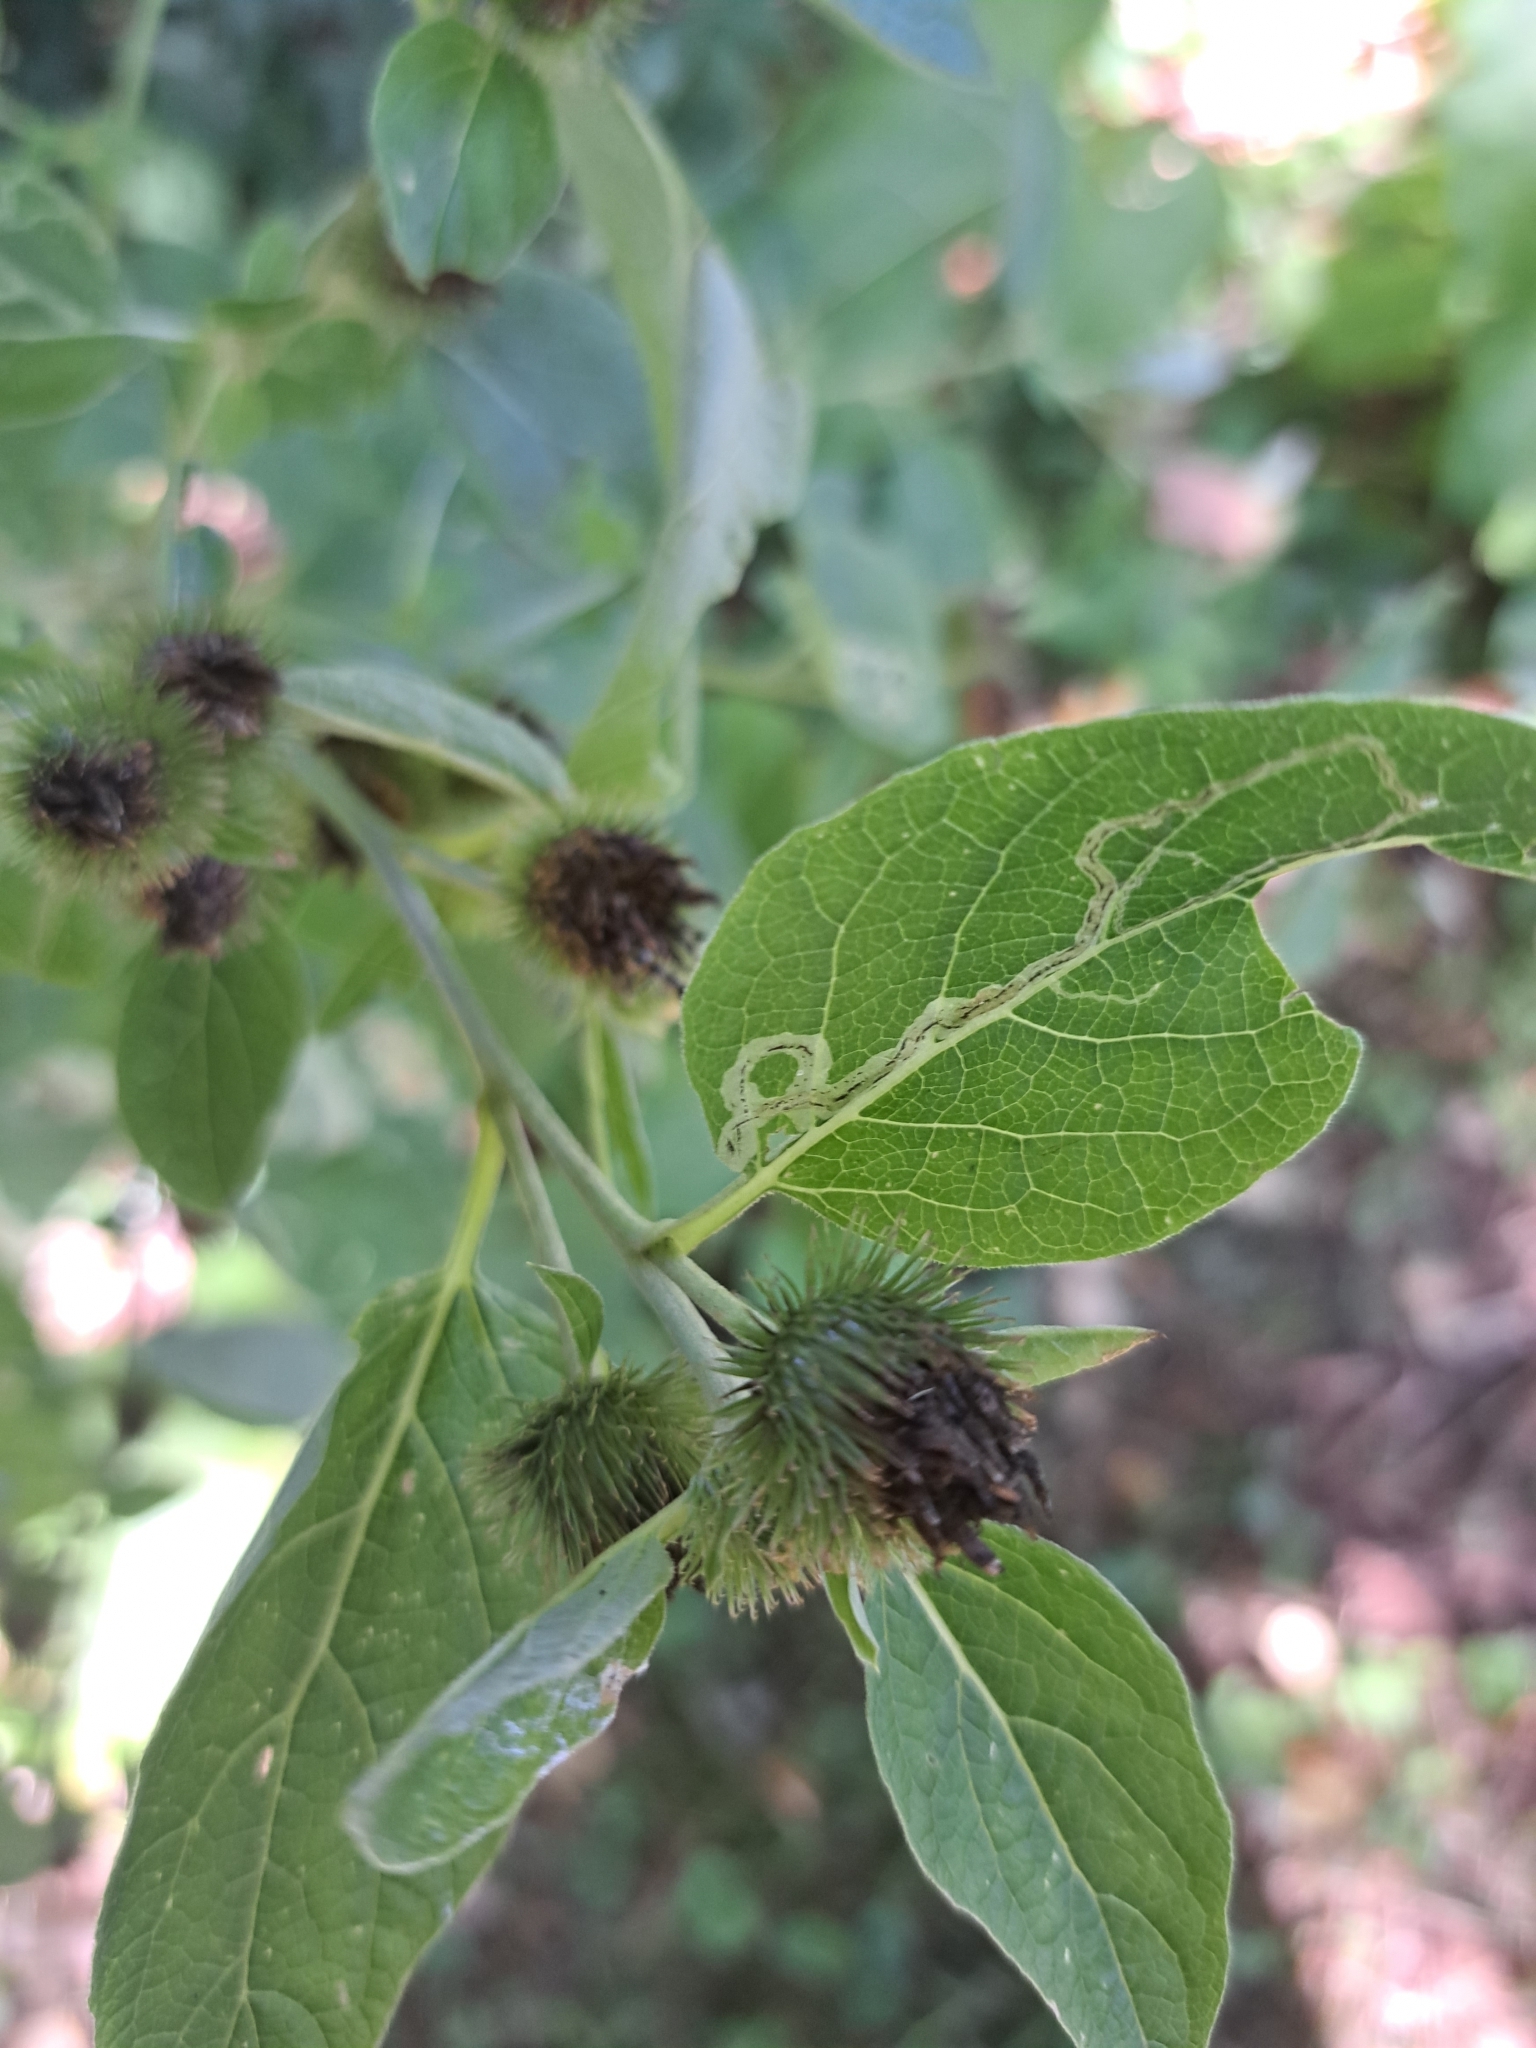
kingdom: Plantae
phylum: Tracheophyta
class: Magnoliopsida
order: Asterales
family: Asteraceae
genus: Arctium
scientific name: Arctium minus
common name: Lesser burdock
